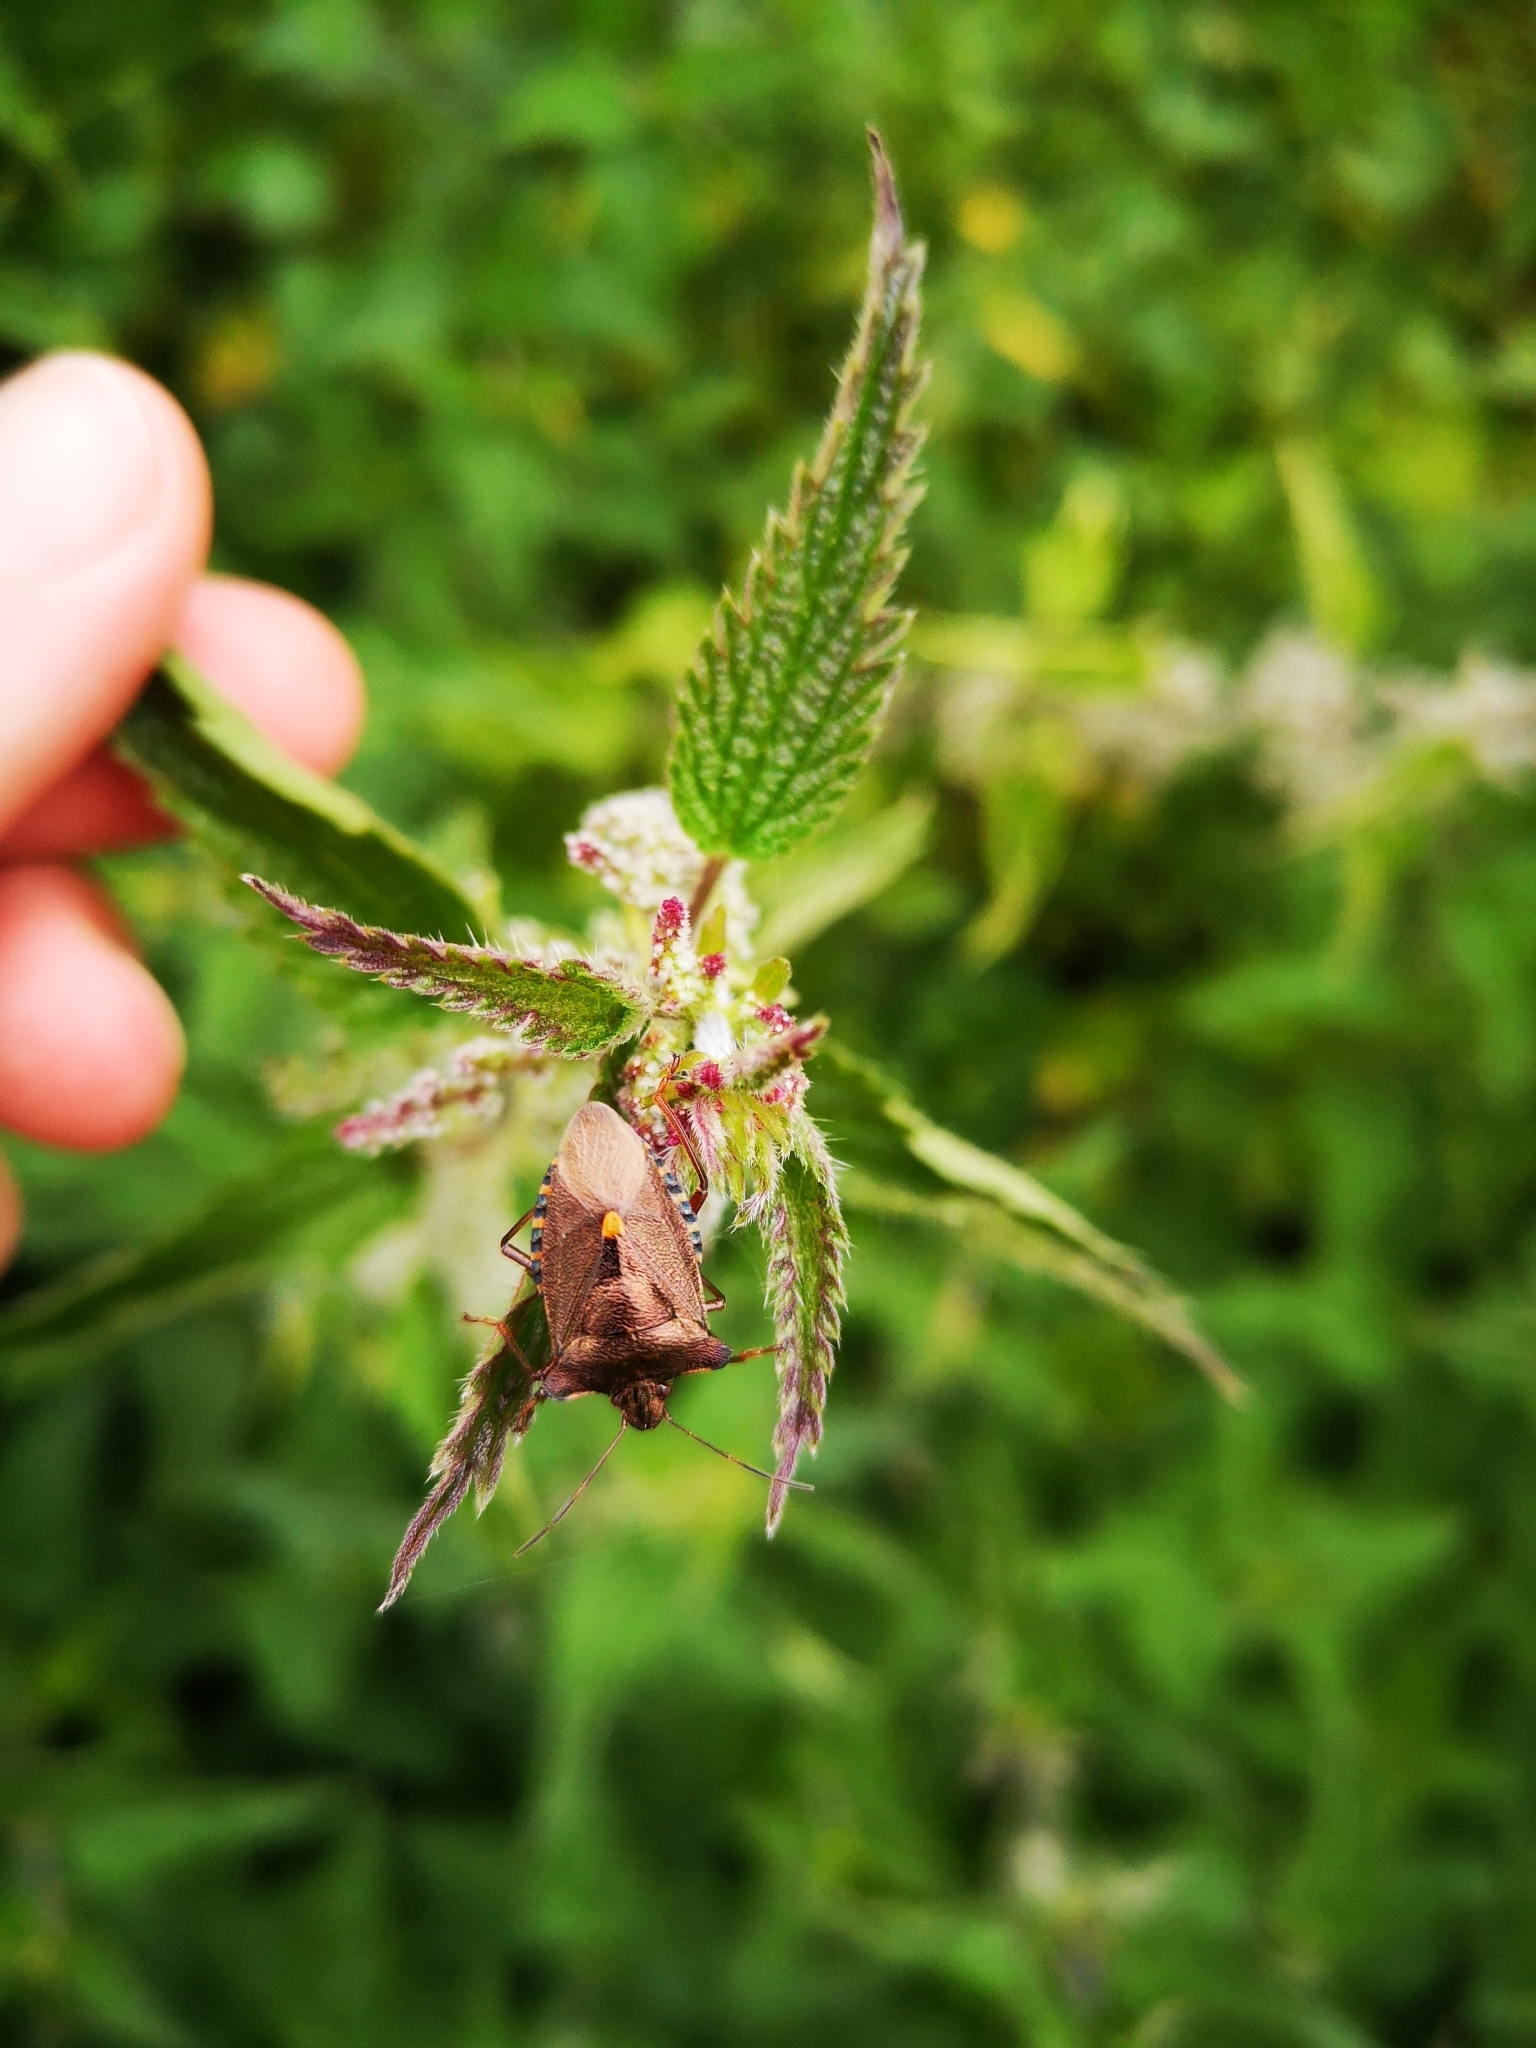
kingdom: Animalia
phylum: Arthropoda
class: Insecta
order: Hemiptera
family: Pentatomidae
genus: Pentatoma
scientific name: Pentatoma rufipes
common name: Forest bug
